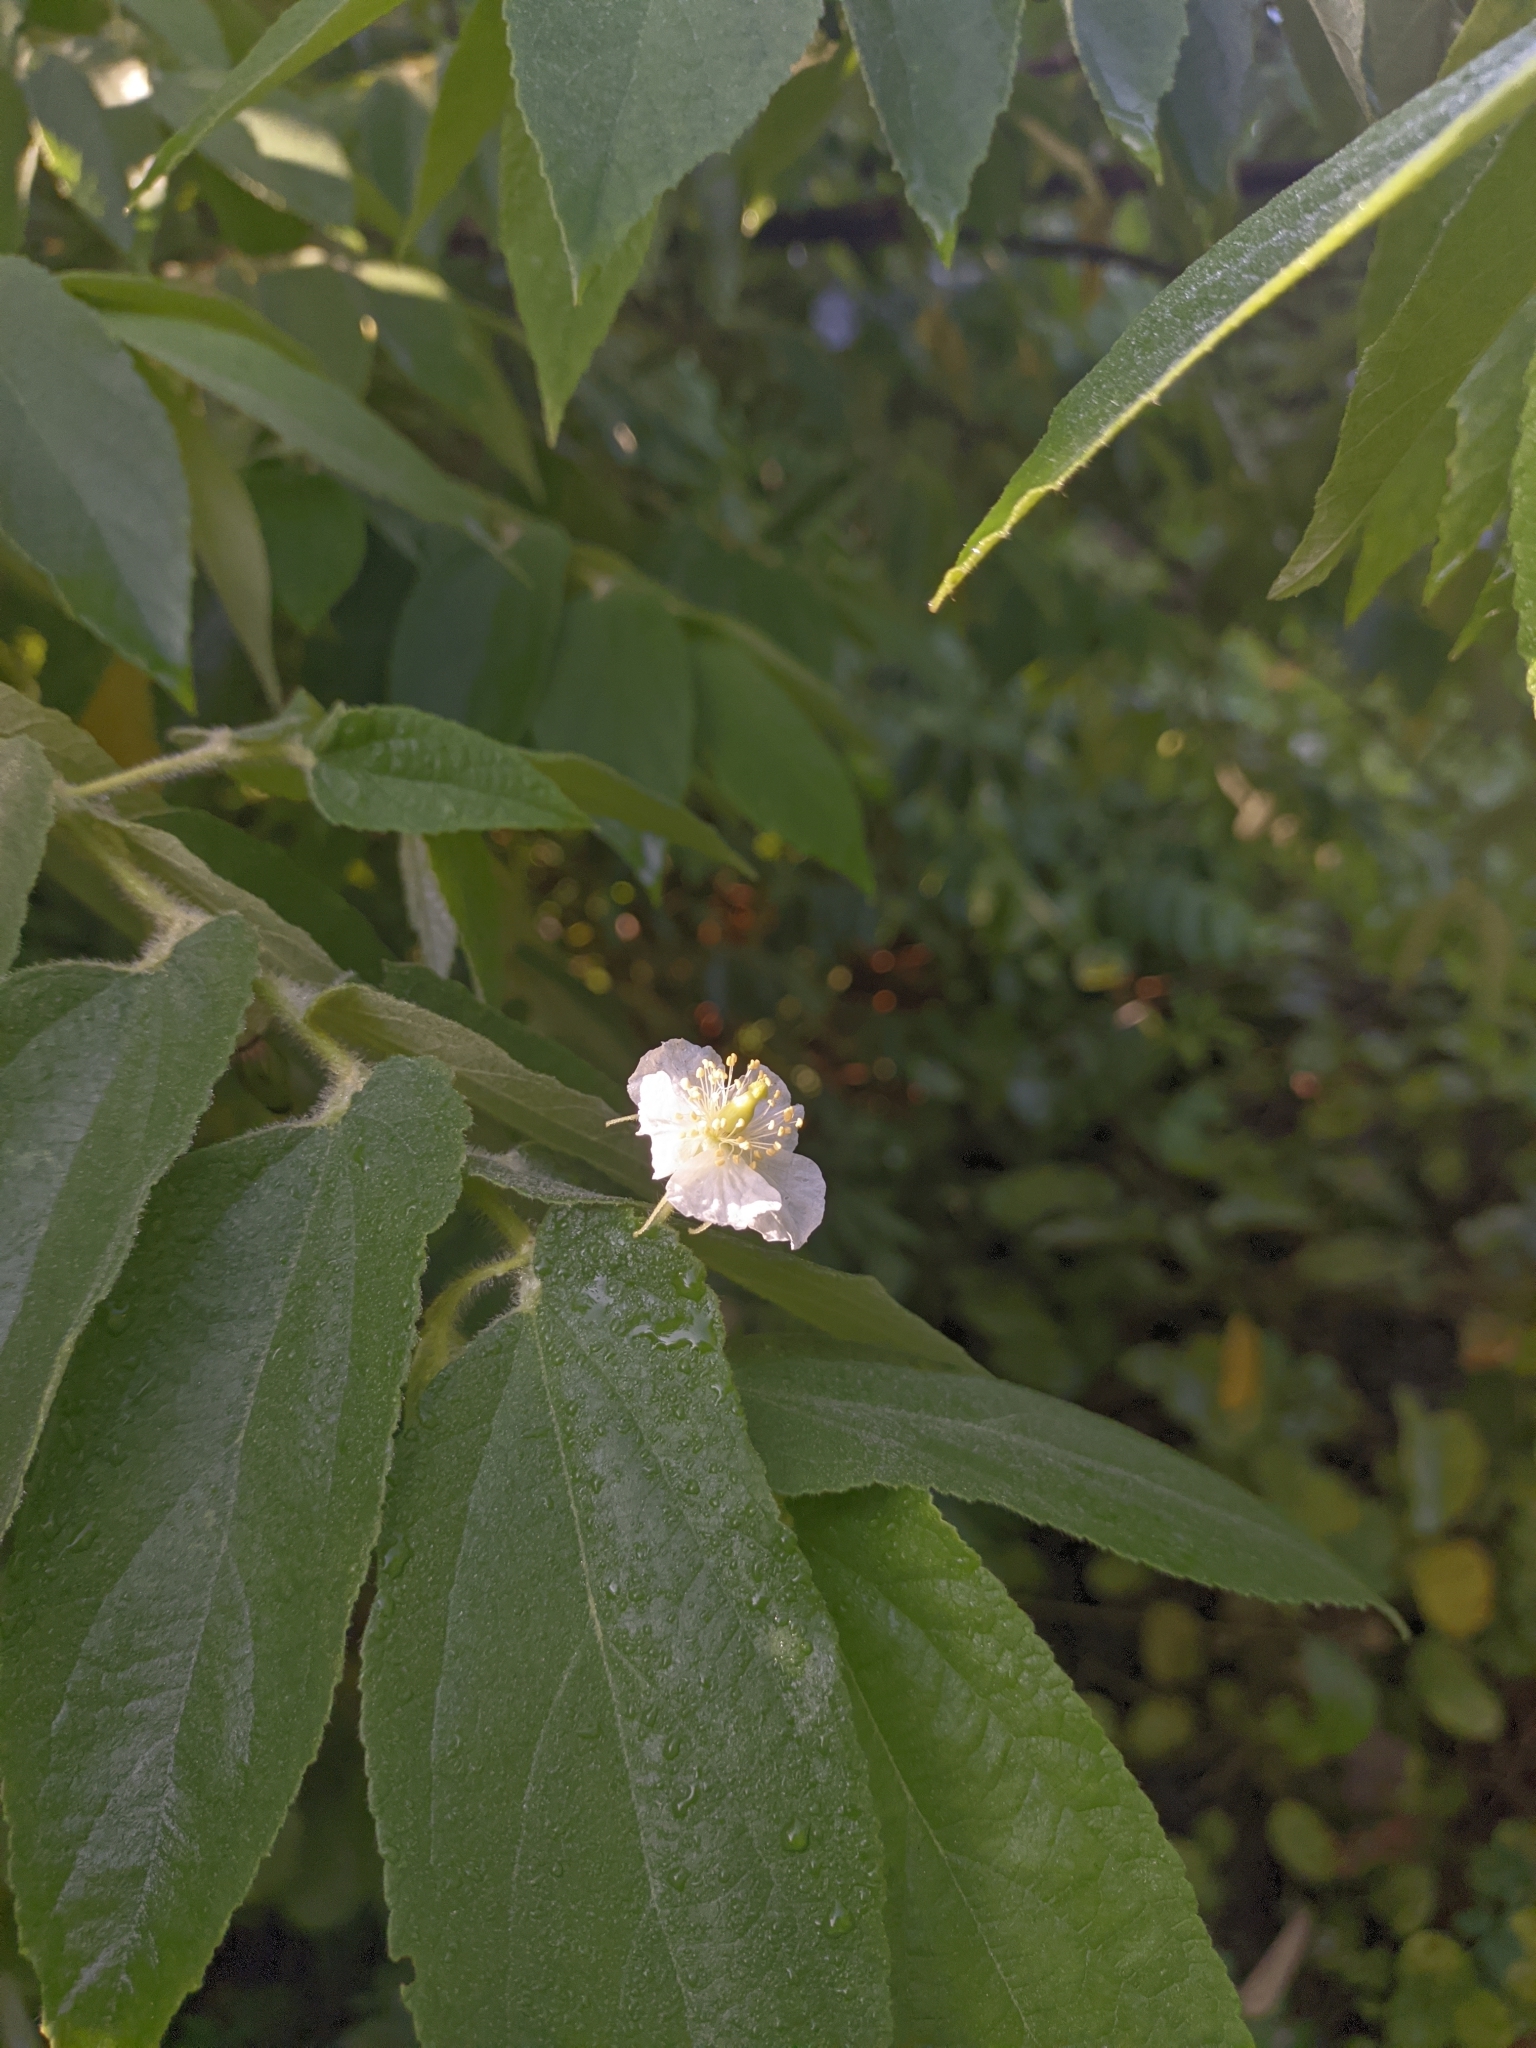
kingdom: Plantae
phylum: Tracheophyta
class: Magnoliopsida
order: Malvales
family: Muntingiaceae
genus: Muntingia
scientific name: Muntingia calabura
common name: Strawberrytree
